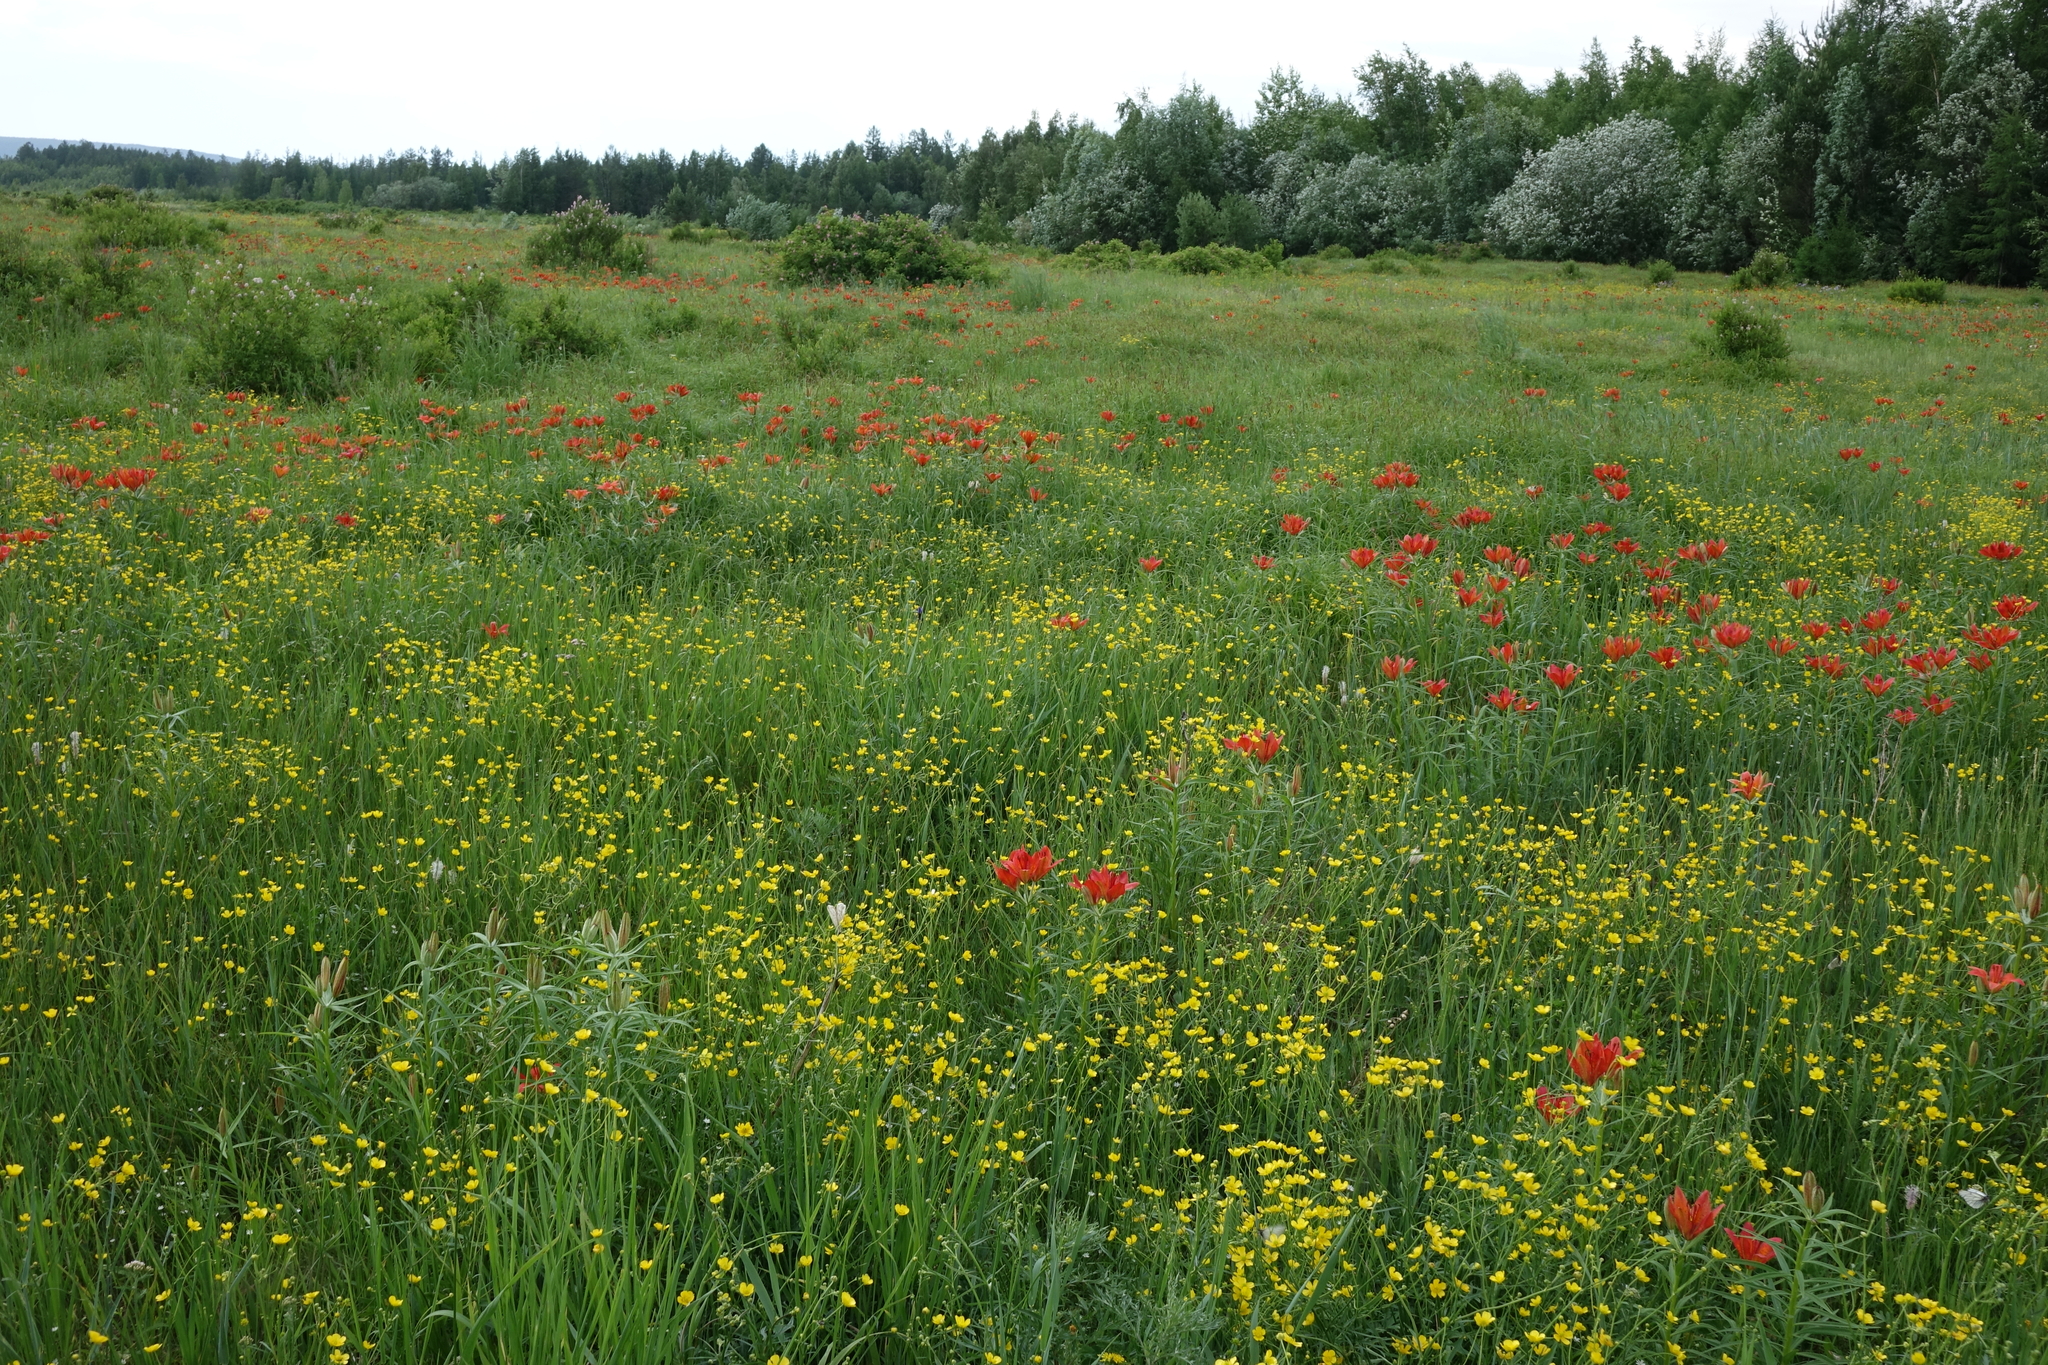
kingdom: Plantae
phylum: Tracheophyta
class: Liliopsida
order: Liliales
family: Liliaceae
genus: Lilium
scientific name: Lilium pensylvanicum
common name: Candlestick lily
